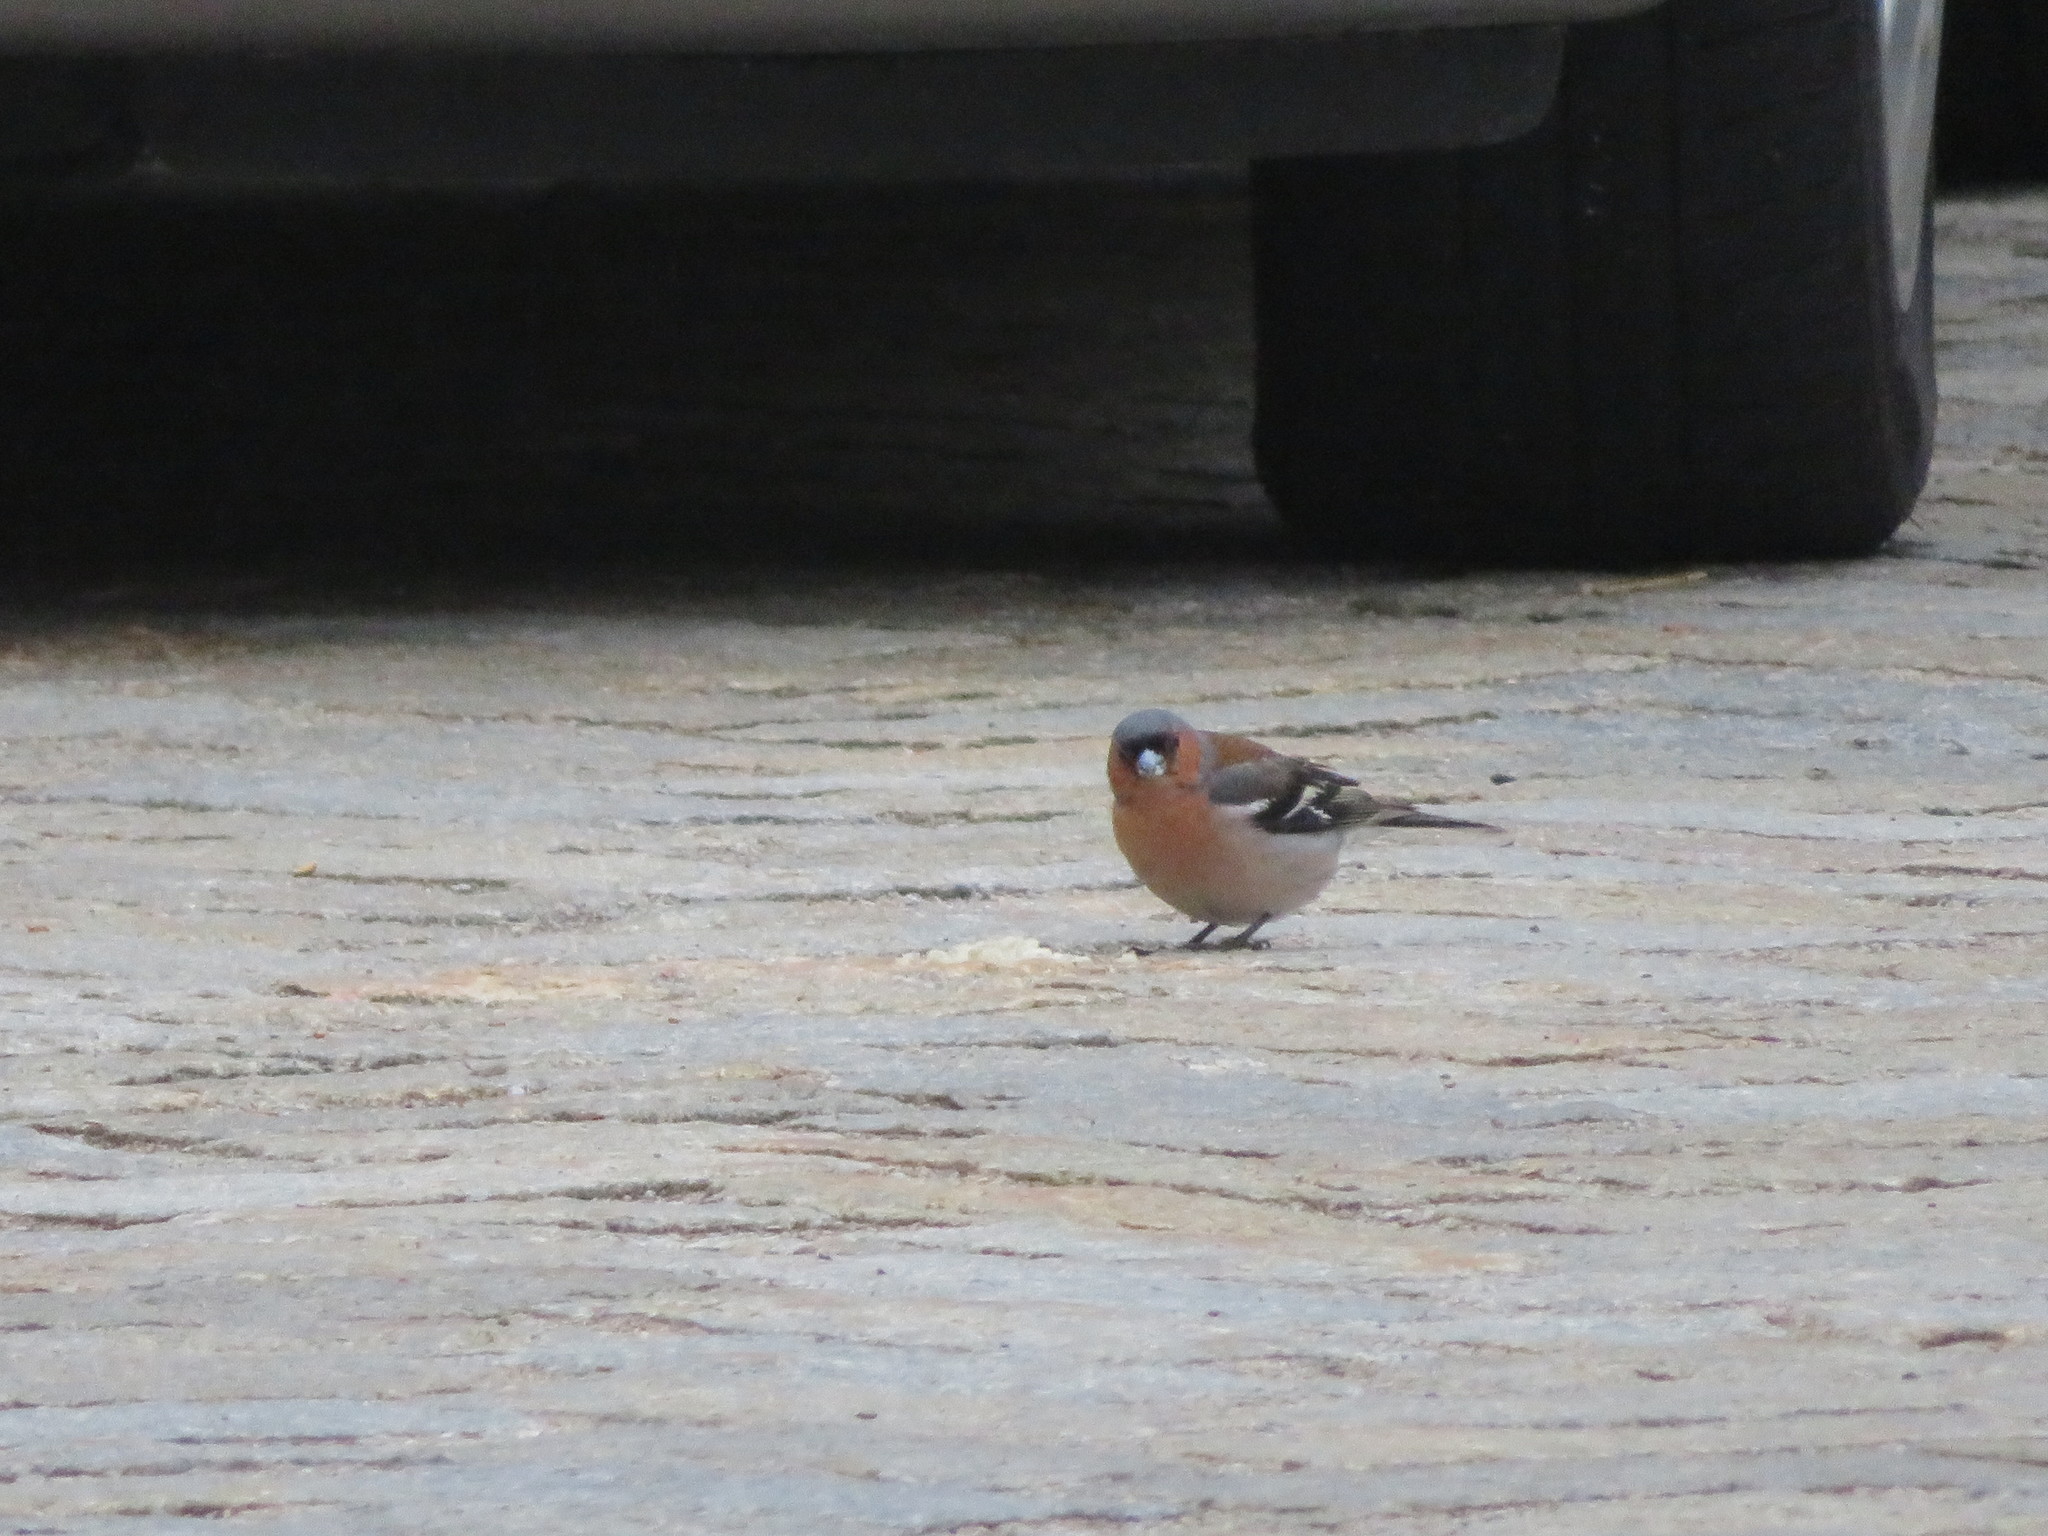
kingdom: Animalia
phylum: Chordata
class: Aves
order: Passeriformes
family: Fringillidae
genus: Fringilla
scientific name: Fringilla coelebs
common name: Common chaffinch
